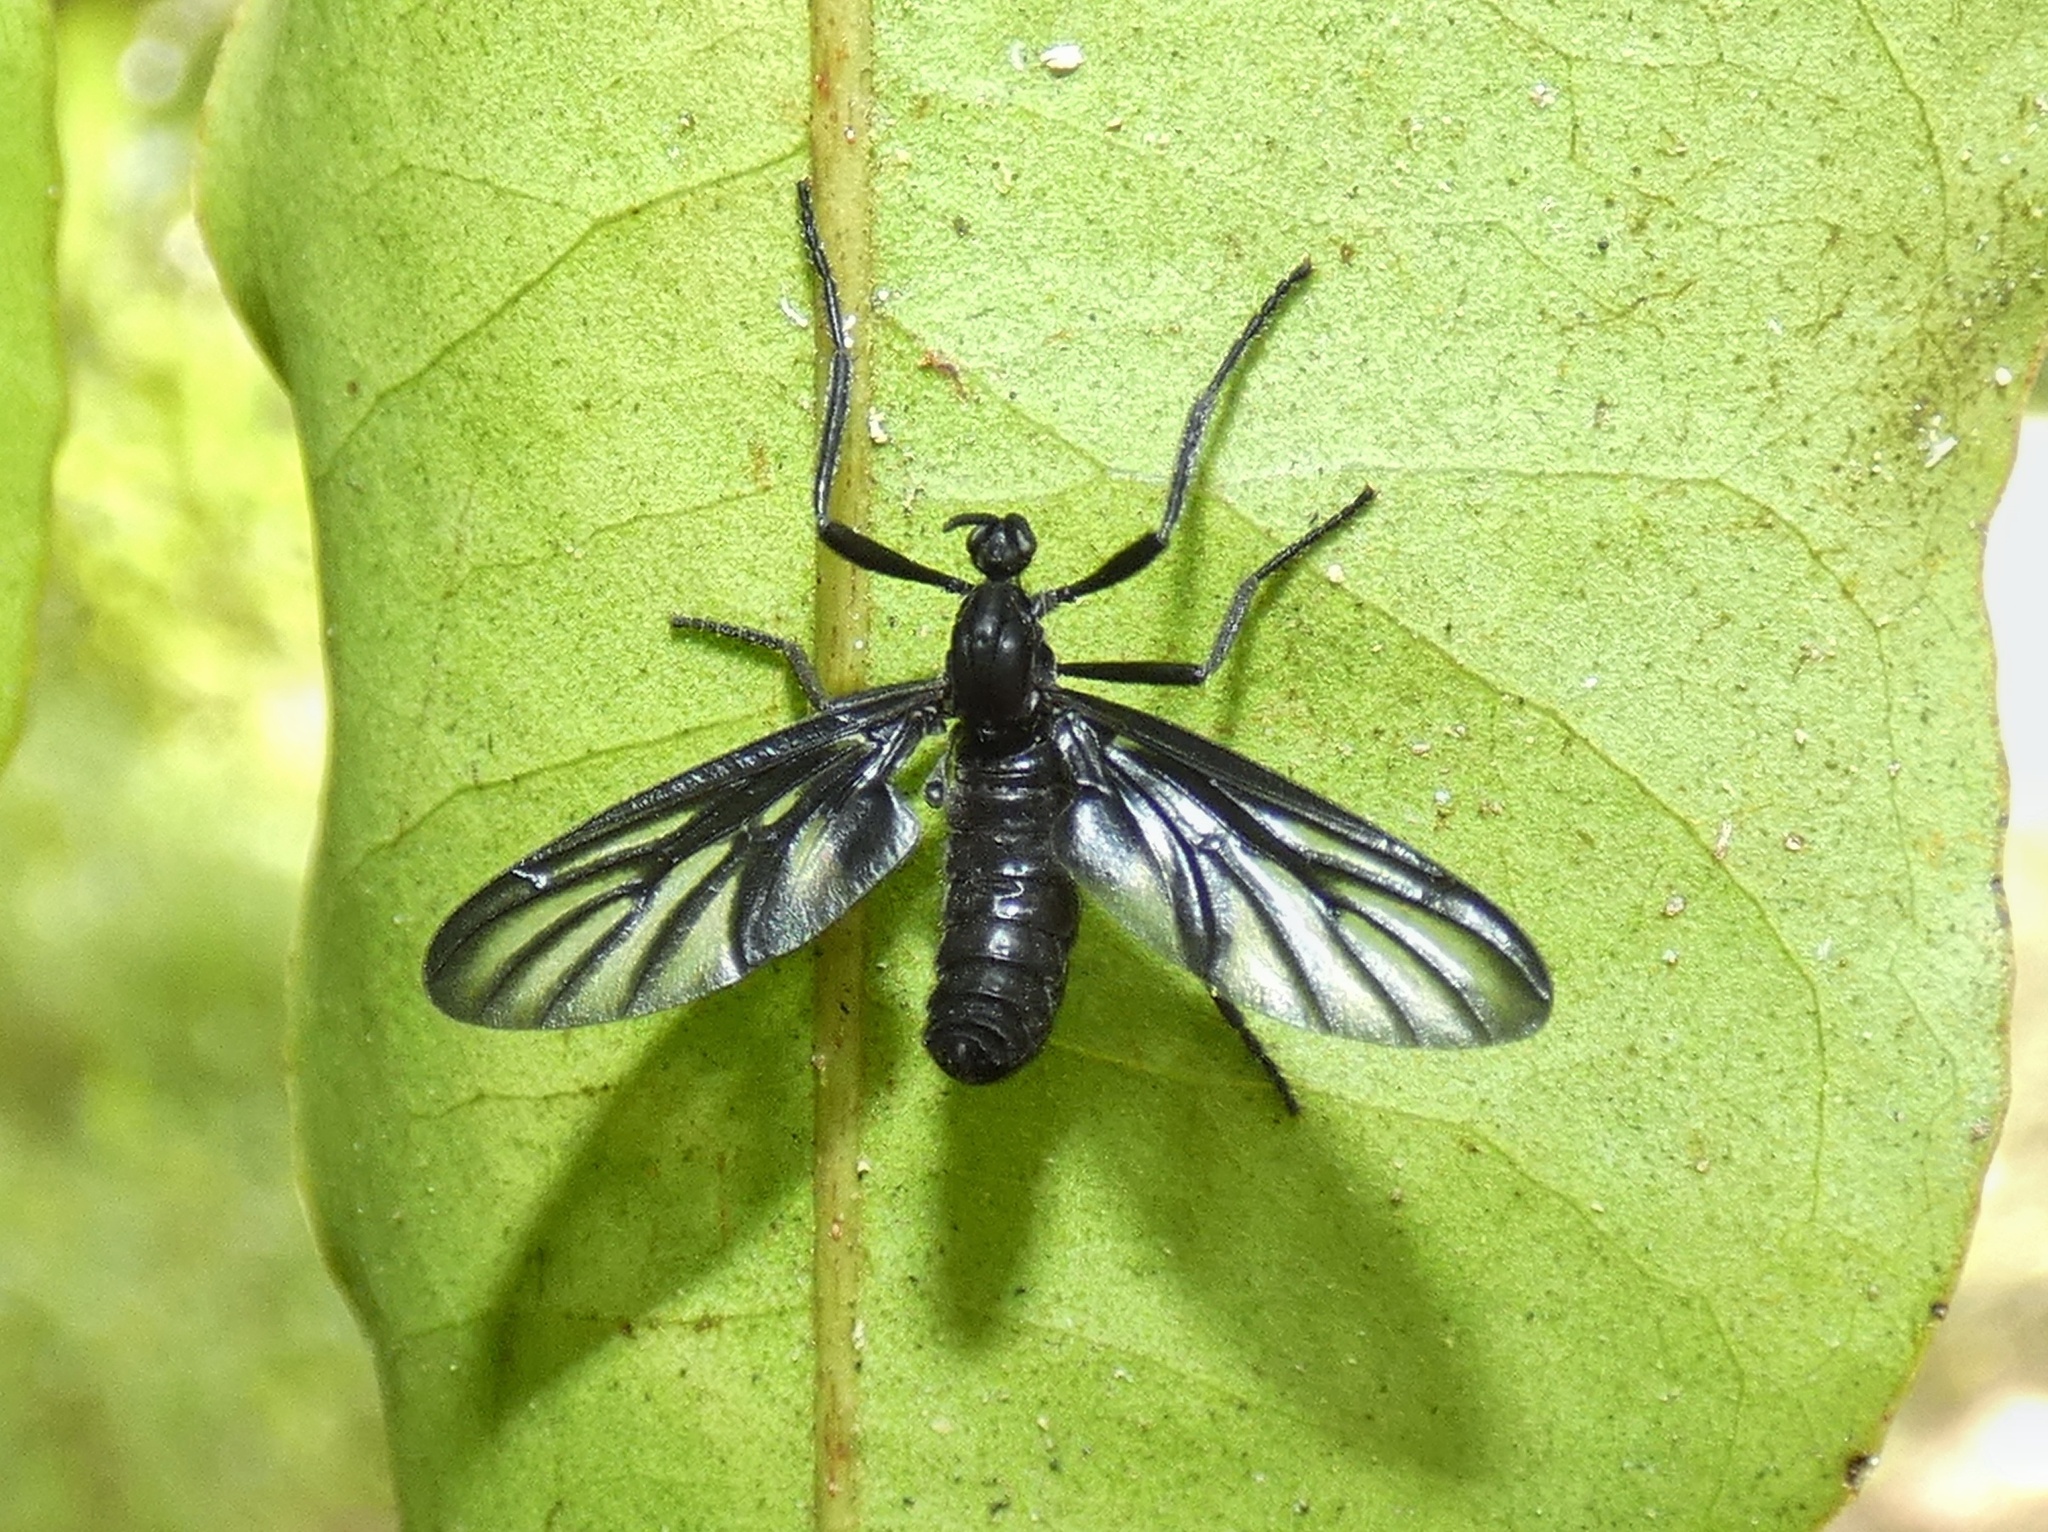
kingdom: Animalia
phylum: Arthropoda
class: Insecta
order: Diptera
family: Bibionidae
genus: Plecia
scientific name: Plecia plagiata
